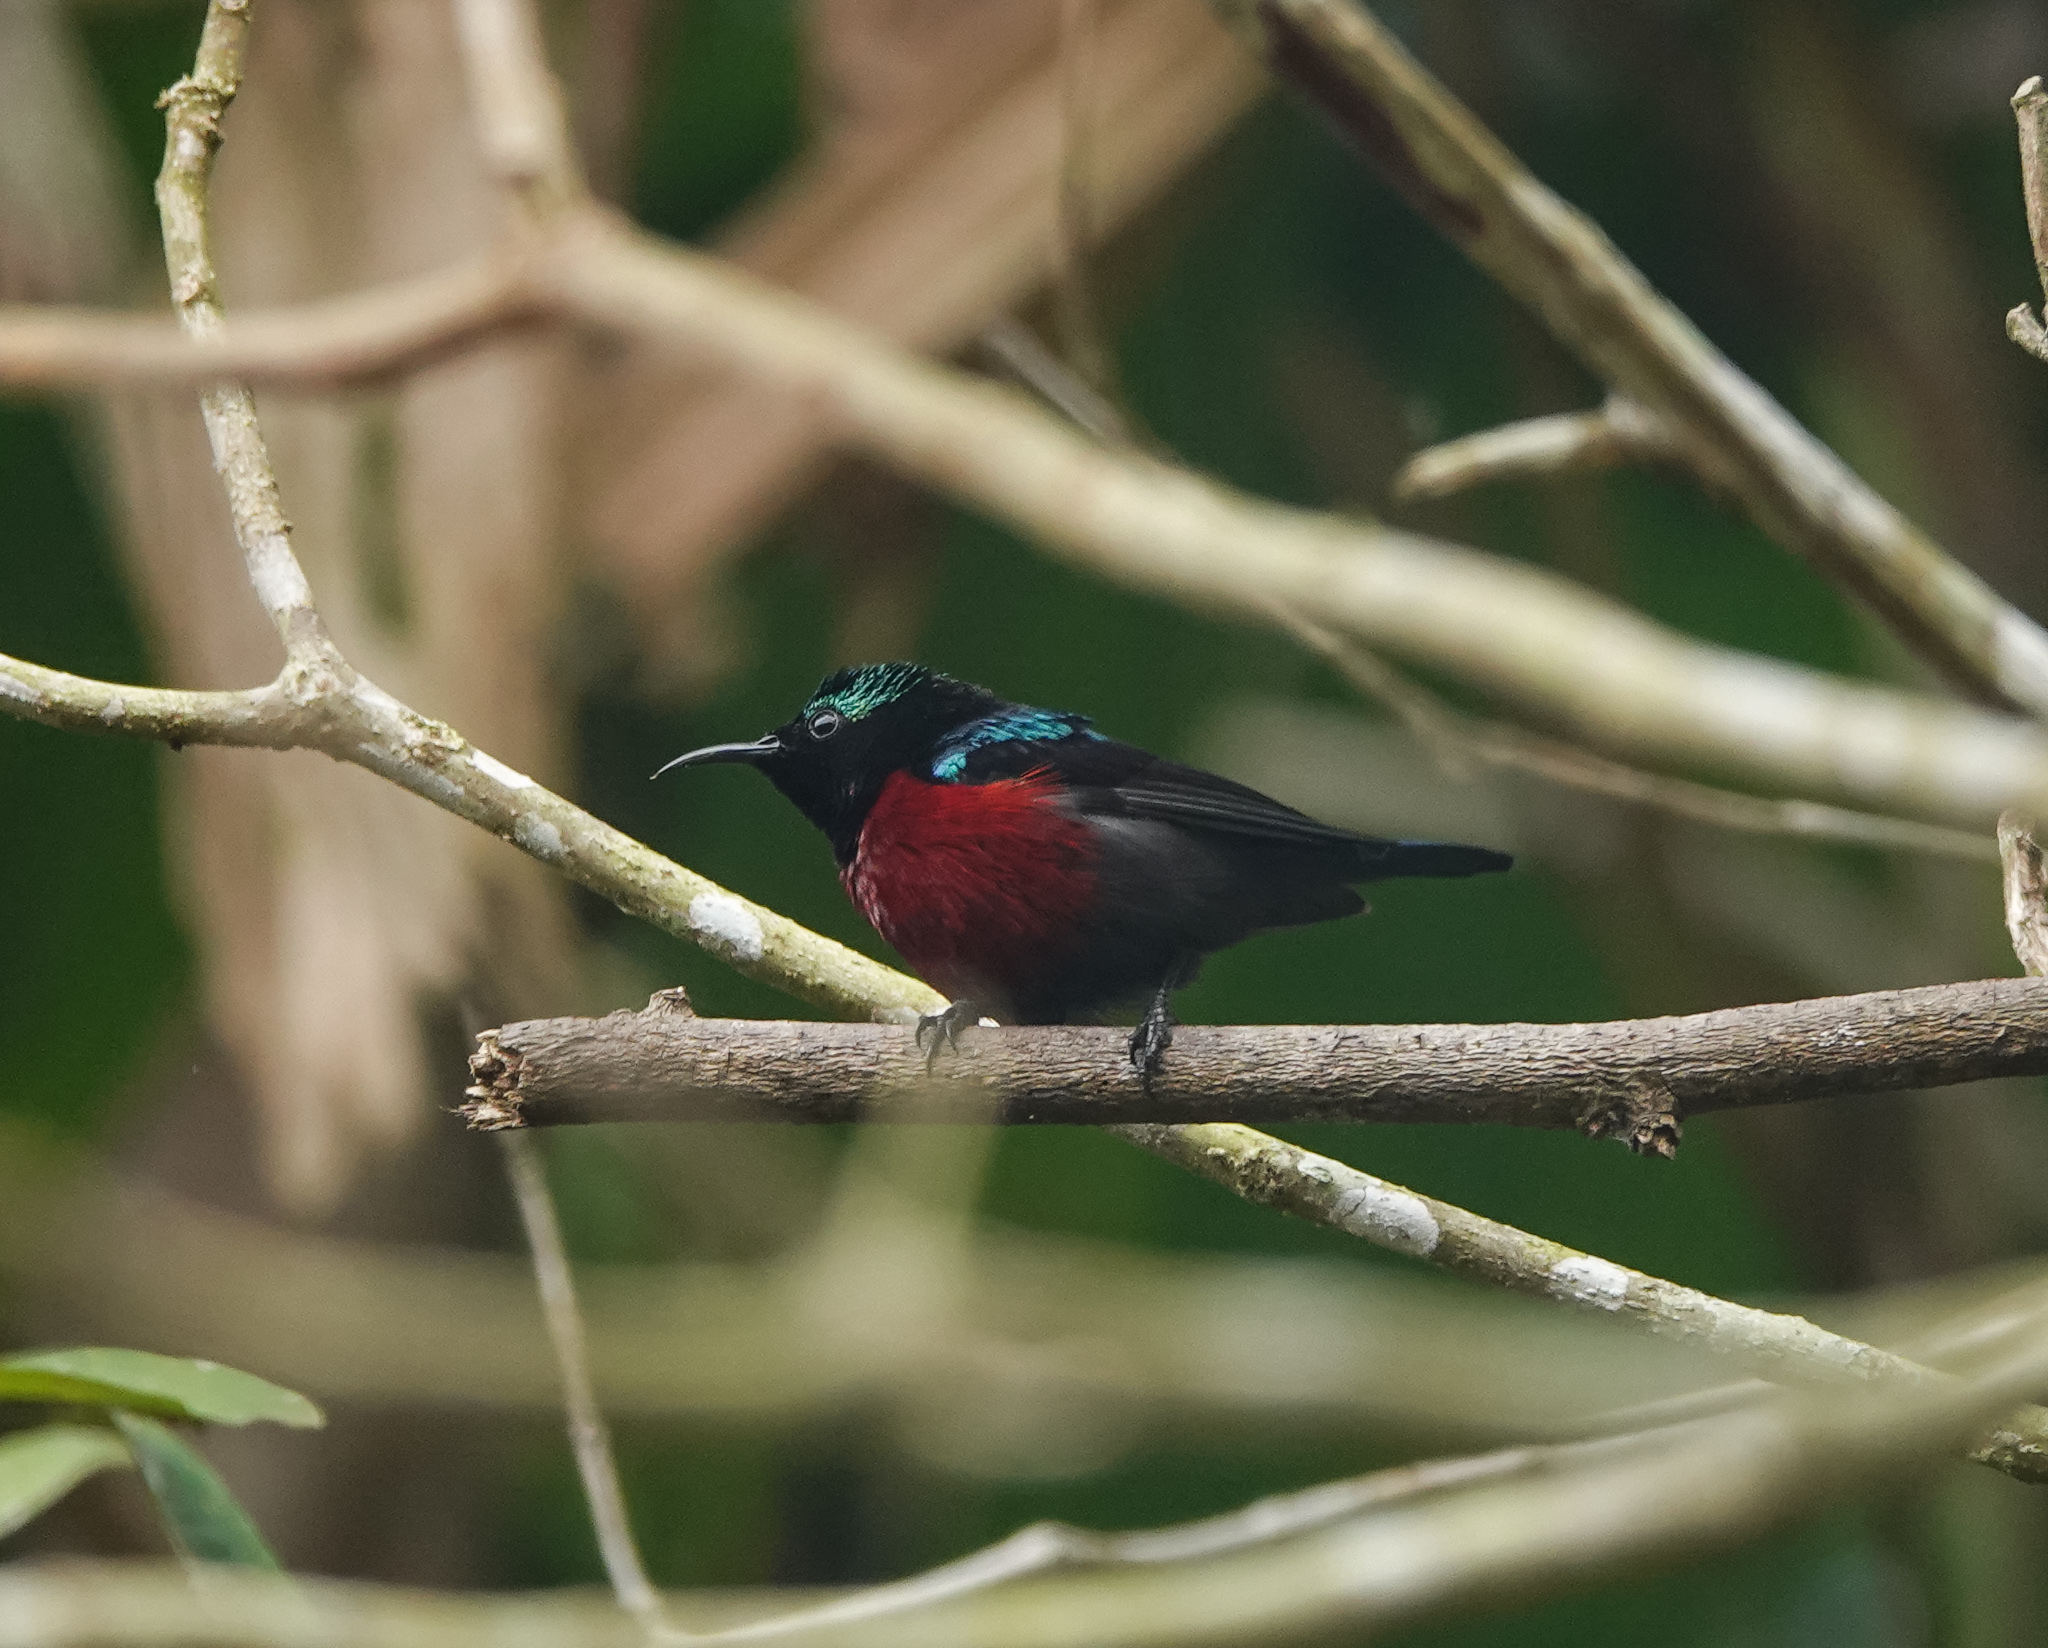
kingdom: Animalia
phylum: Chordata
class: Aves
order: Passeriformes
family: Nectariniidae
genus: Leptocoma
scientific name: Leptocoma brasiliana
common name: Van hasselt's sunbird
